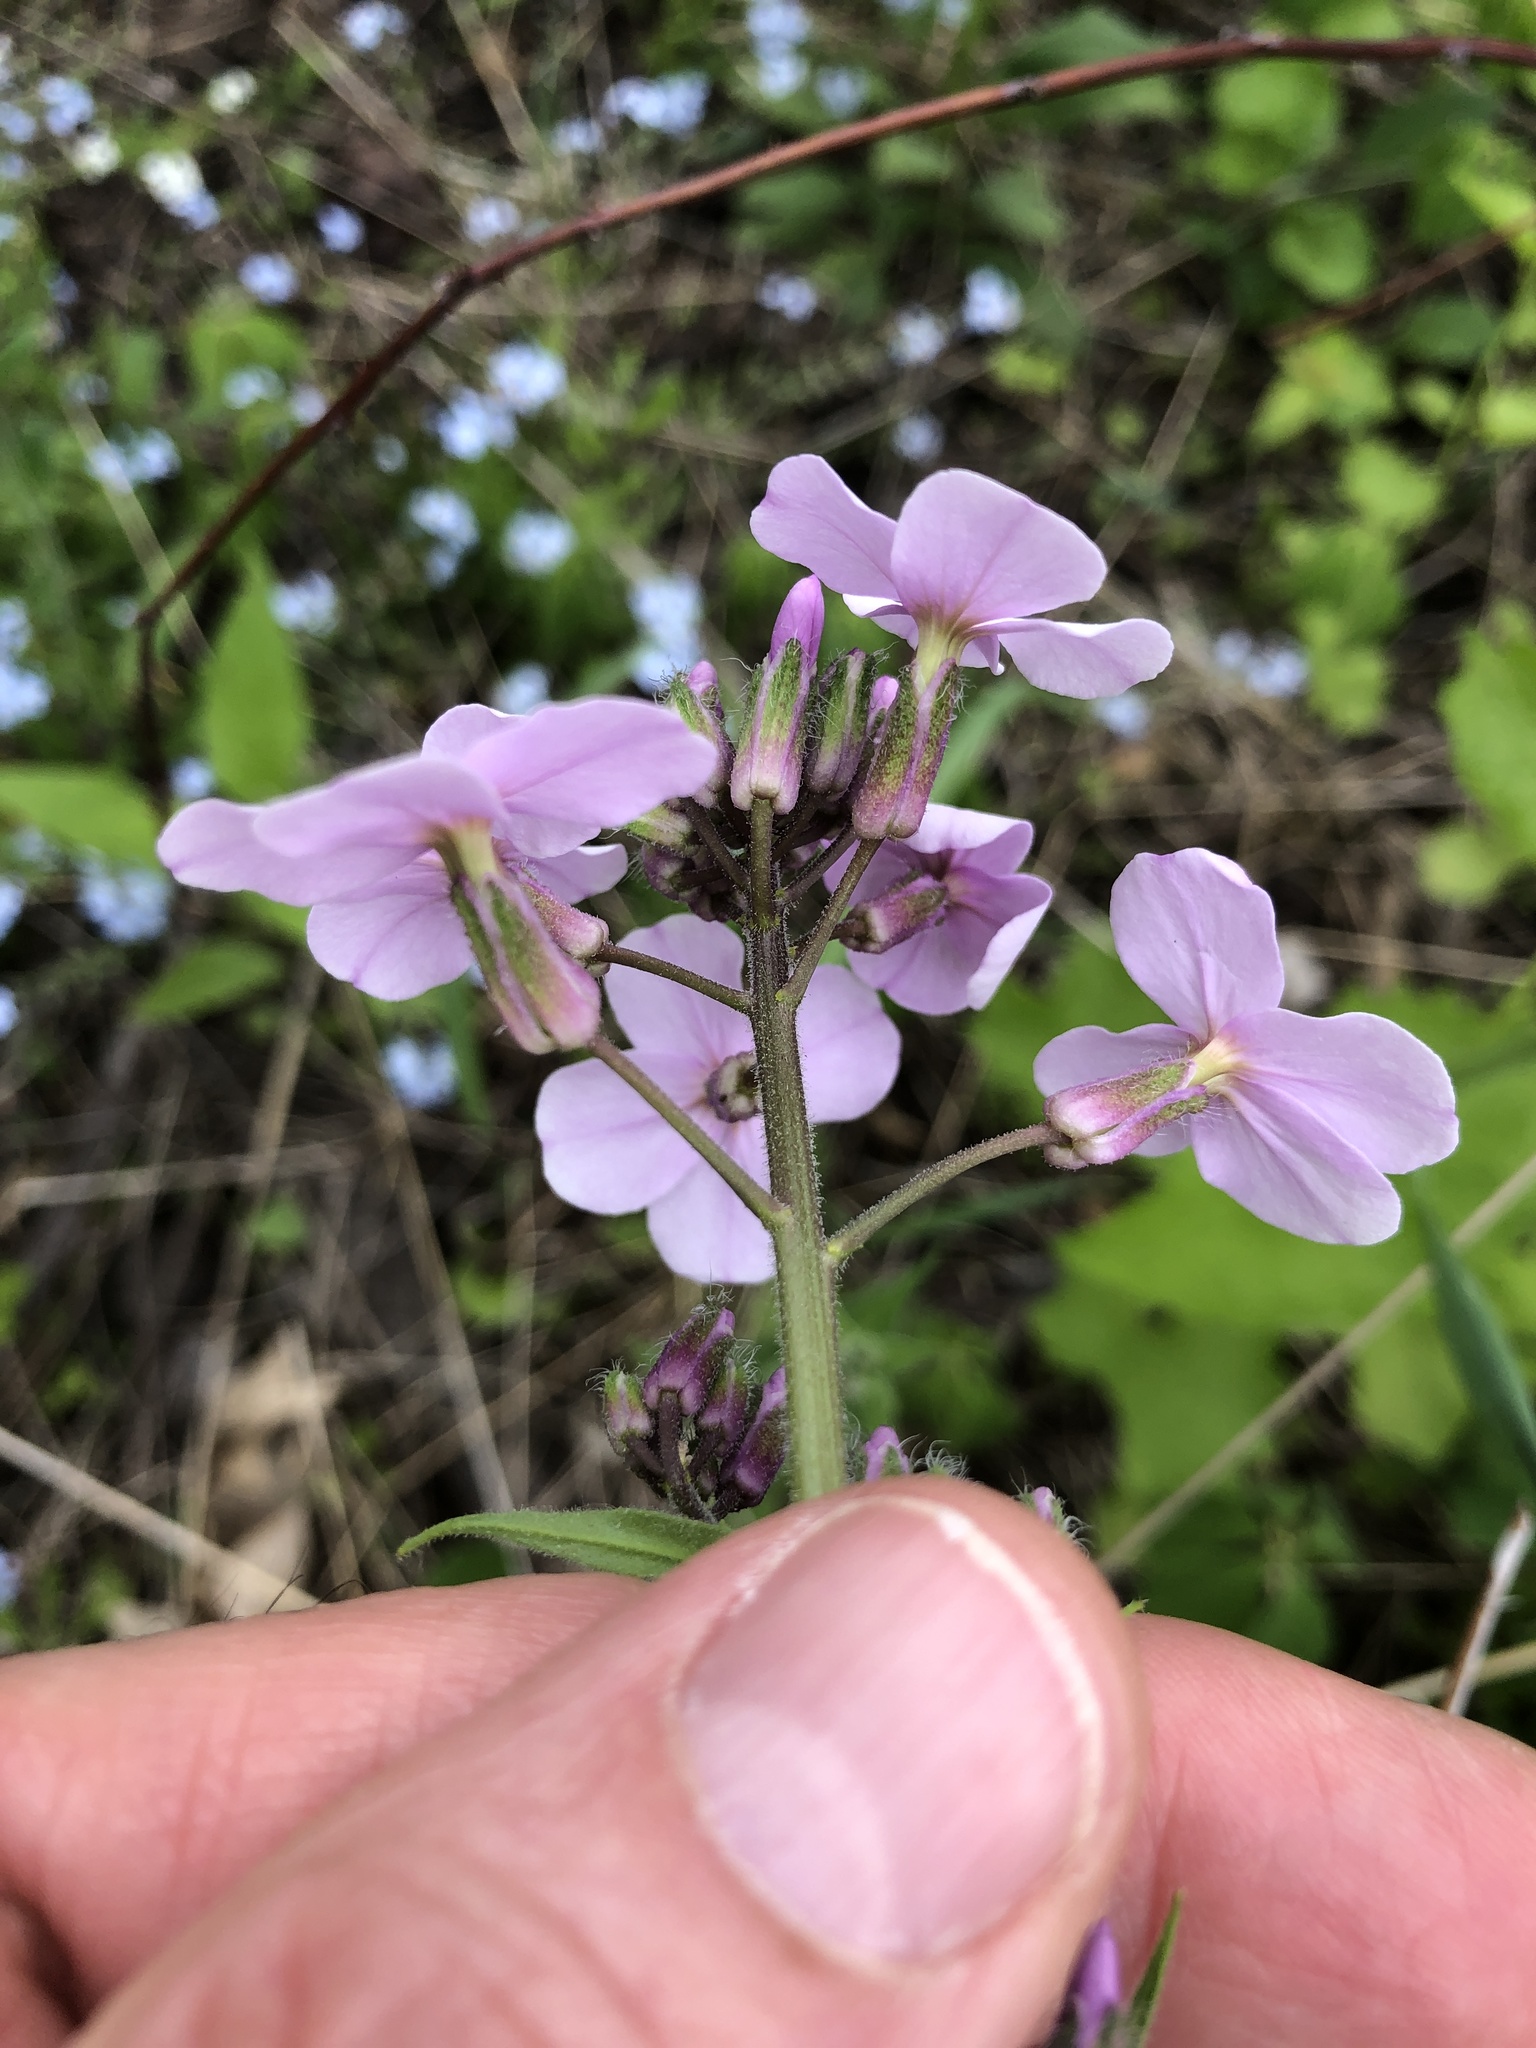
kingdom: Plantae
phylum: Tracheophyta
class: Magnoliopsida
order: Brassicales
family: Brassicaceae
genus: Hesperis
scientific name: Hesperis matronalis
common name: Dame's-violet
